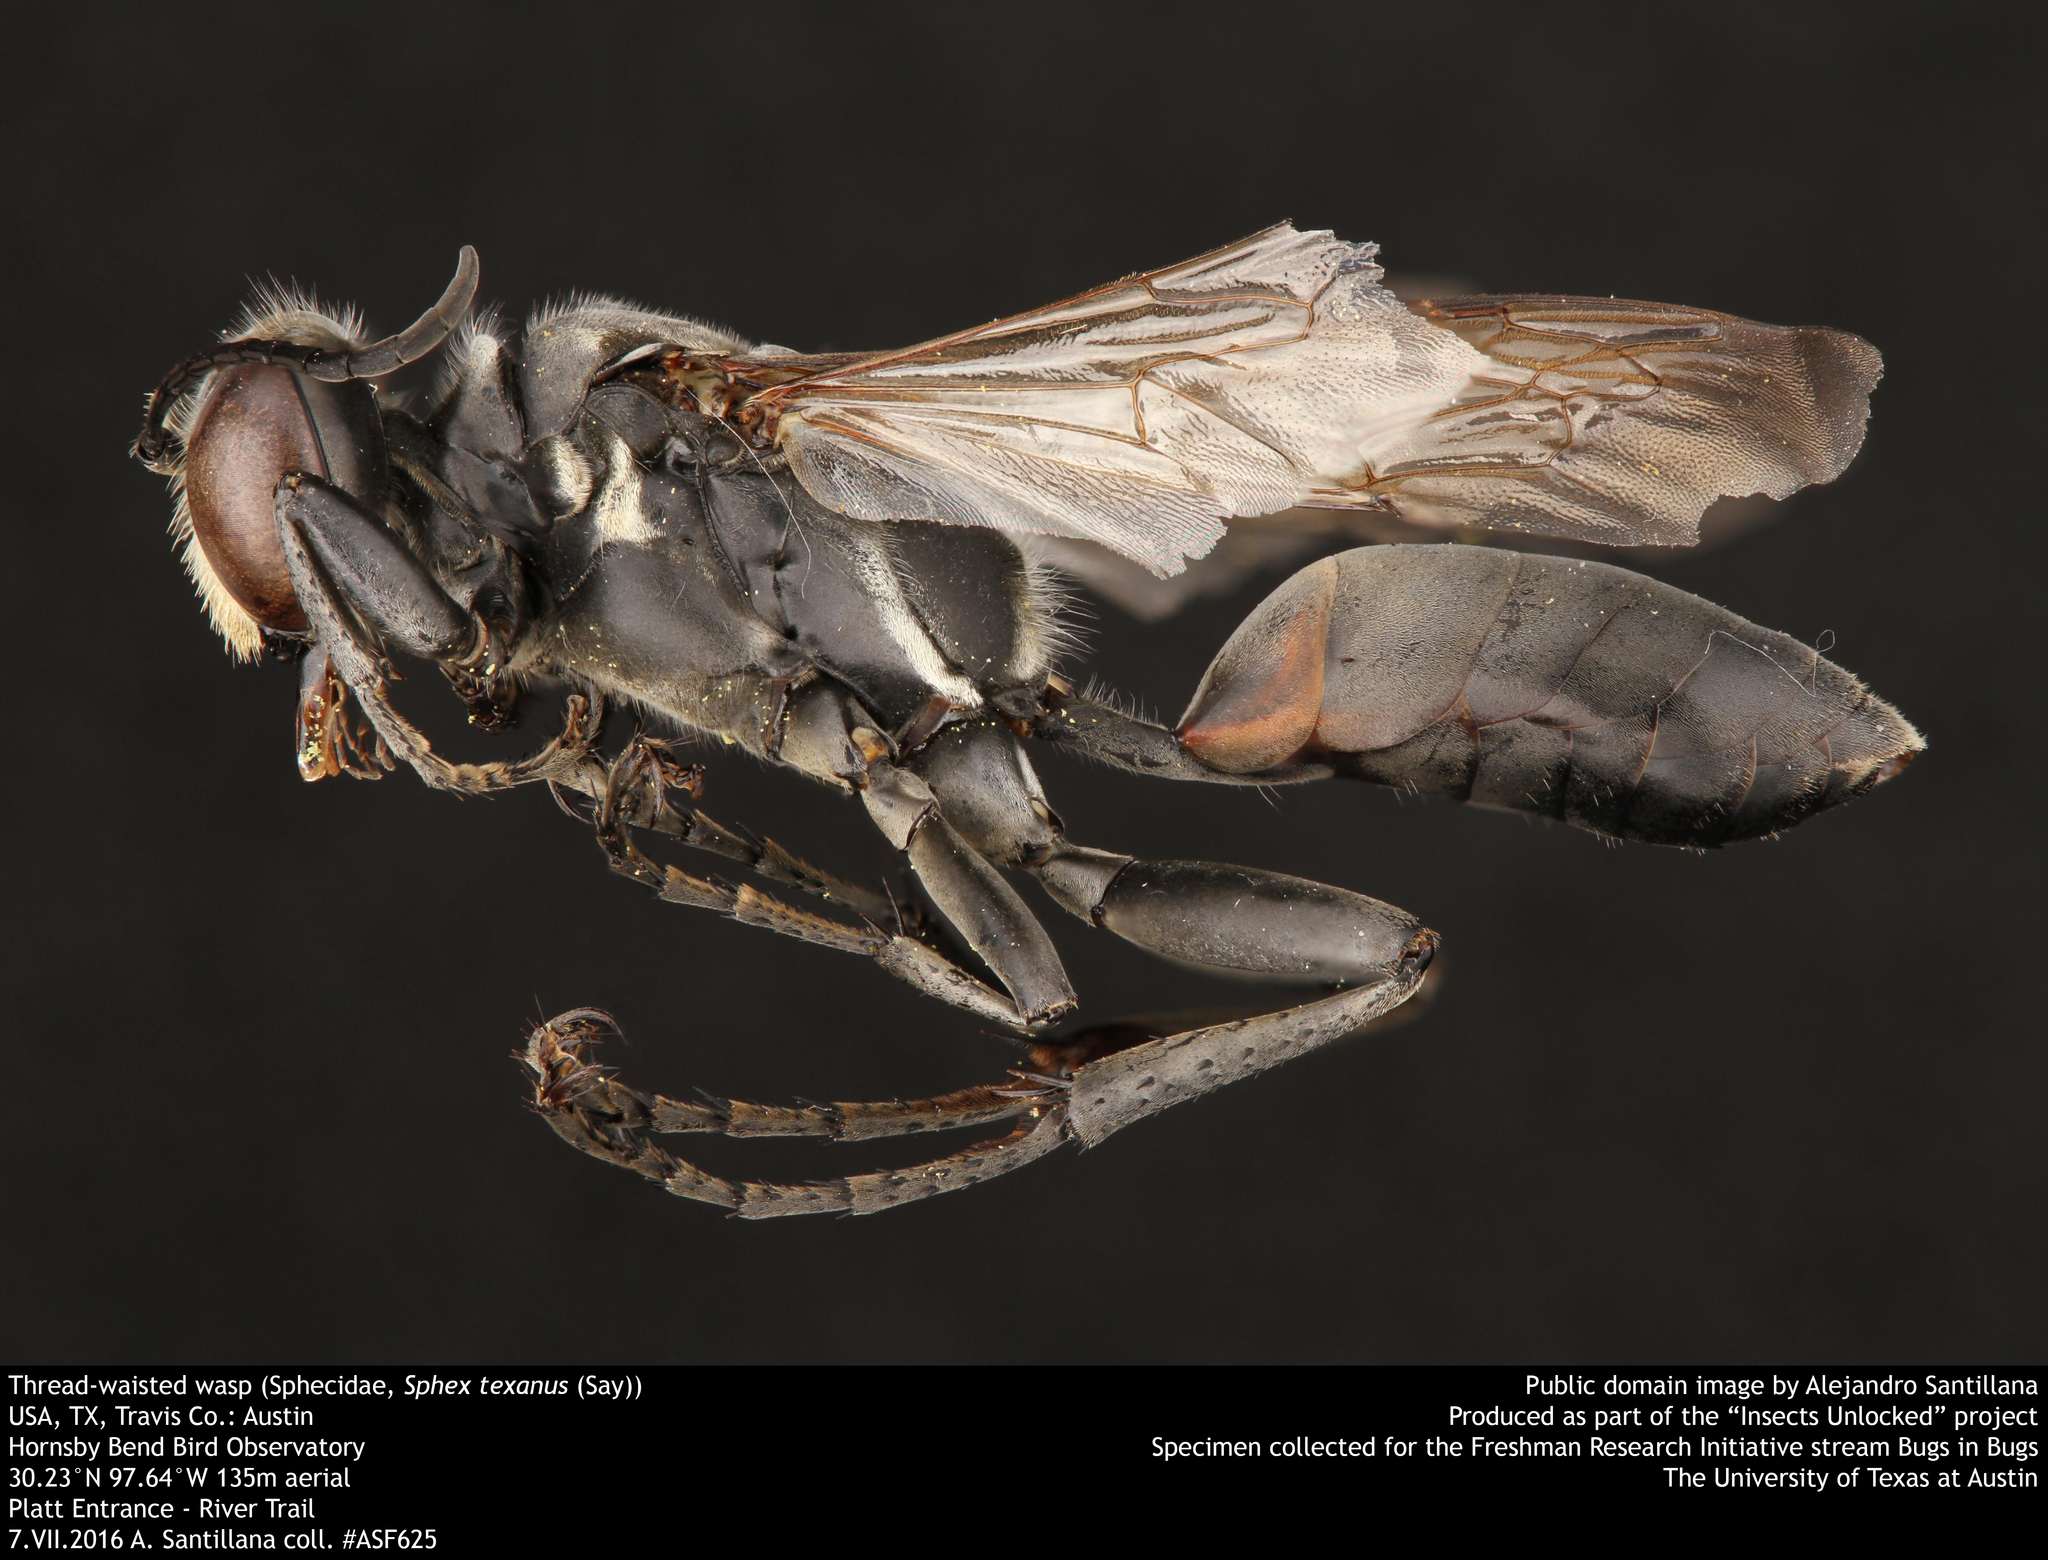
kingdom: Animalia
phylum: Arthropoda
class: Insecta
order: Hymenoptera
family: Sphecidae
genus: Sphex
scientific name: Sphex texanus
